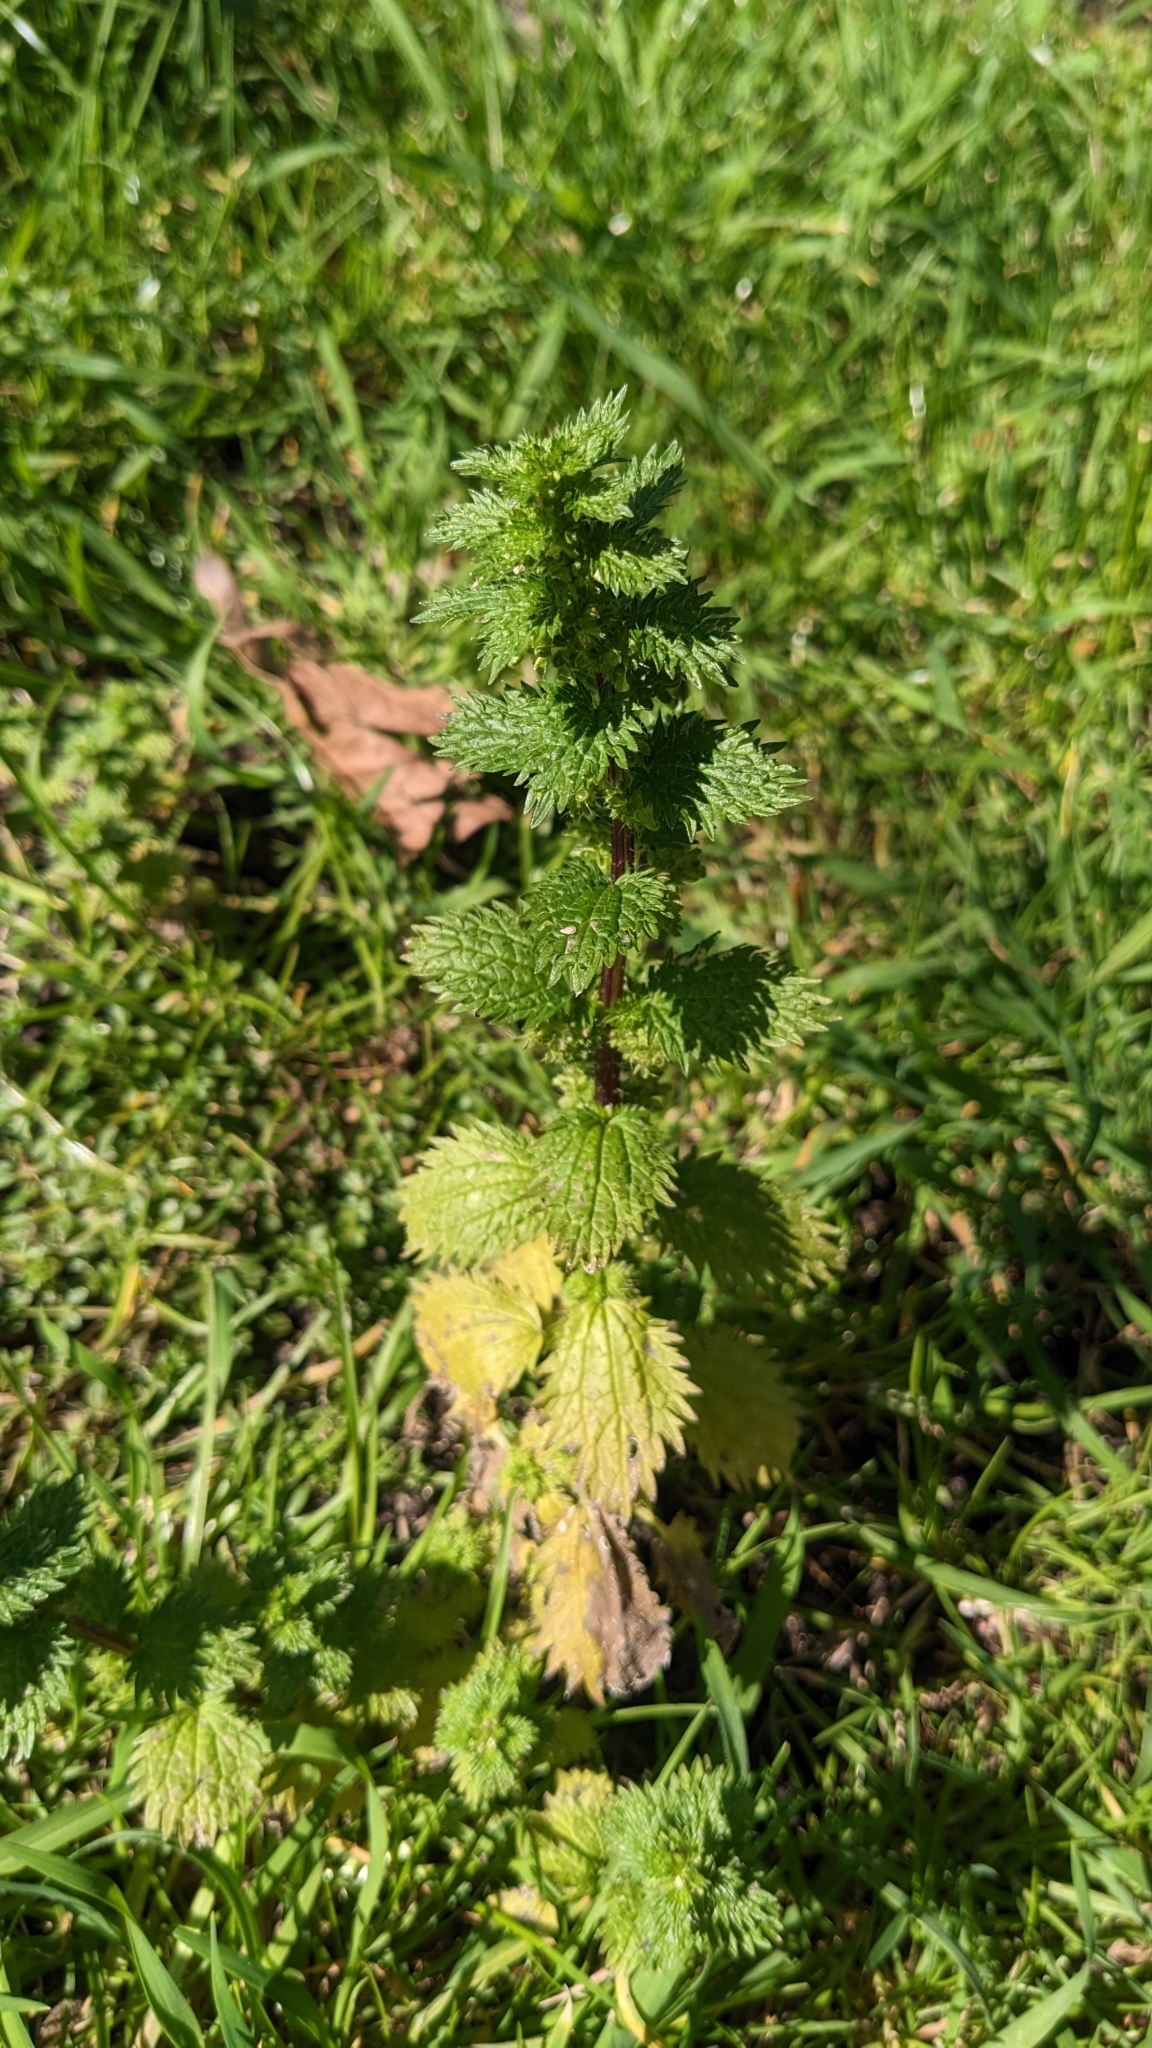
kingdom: Plantae
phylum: Tracheophyta
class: Magnoliopsida
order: Rosales
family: Urticaceae
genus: Urtica
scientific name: Urtica urens
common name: Dwarf nettle
